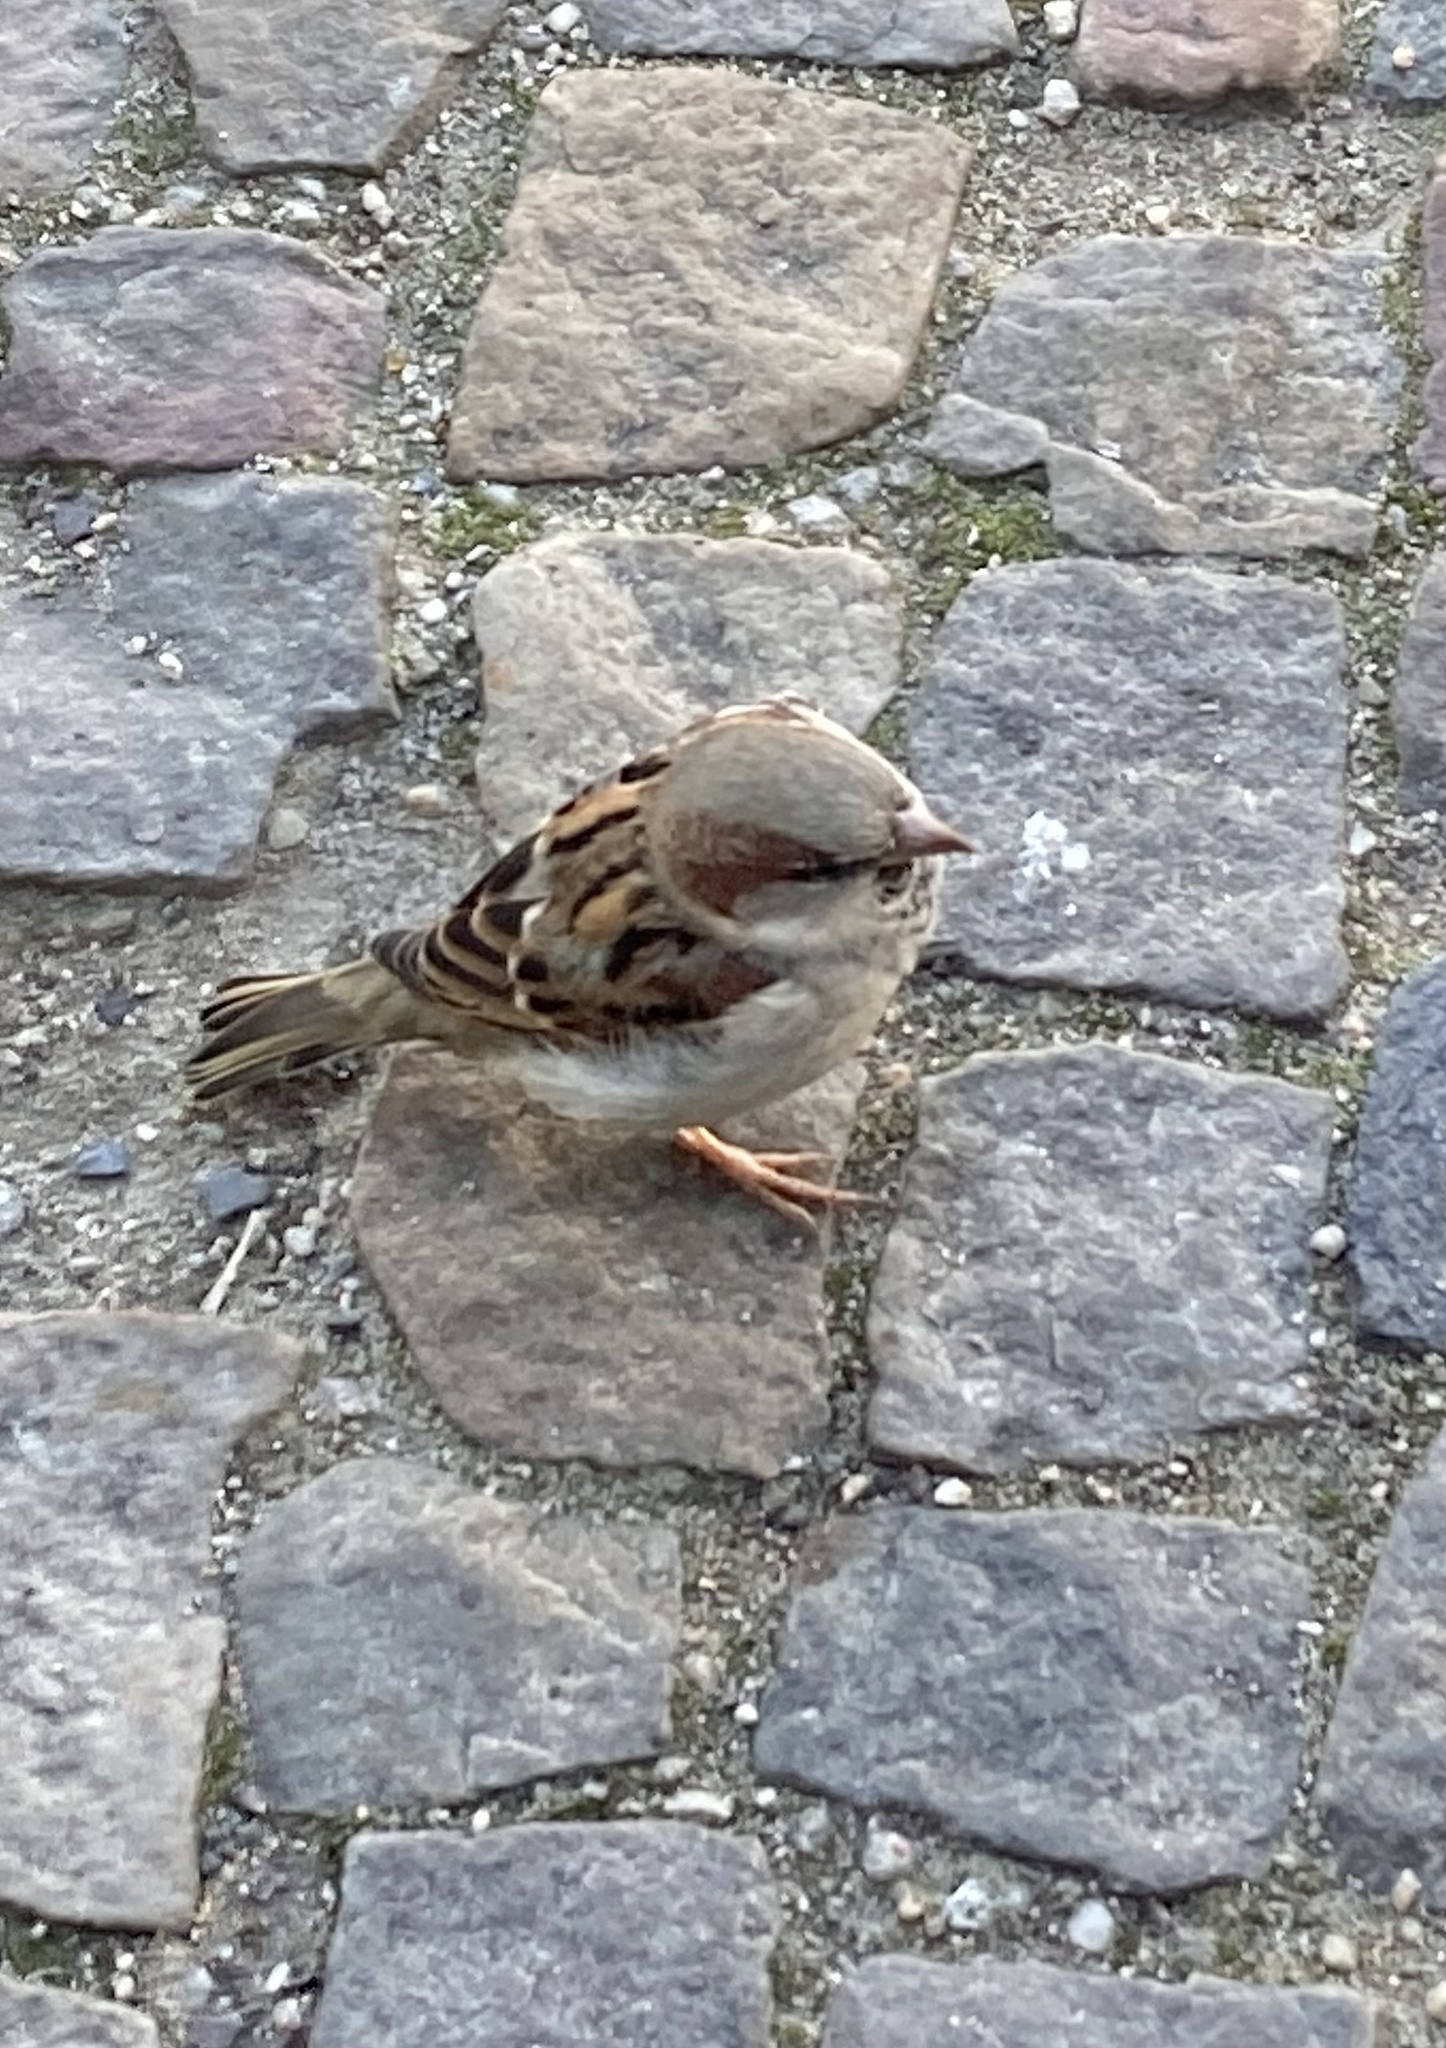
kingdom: Animalia
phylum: Chordata
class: Aves
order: Passeriformes
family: Passeridae
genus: Passer
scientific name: Passer domesticus
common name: House sparrow
